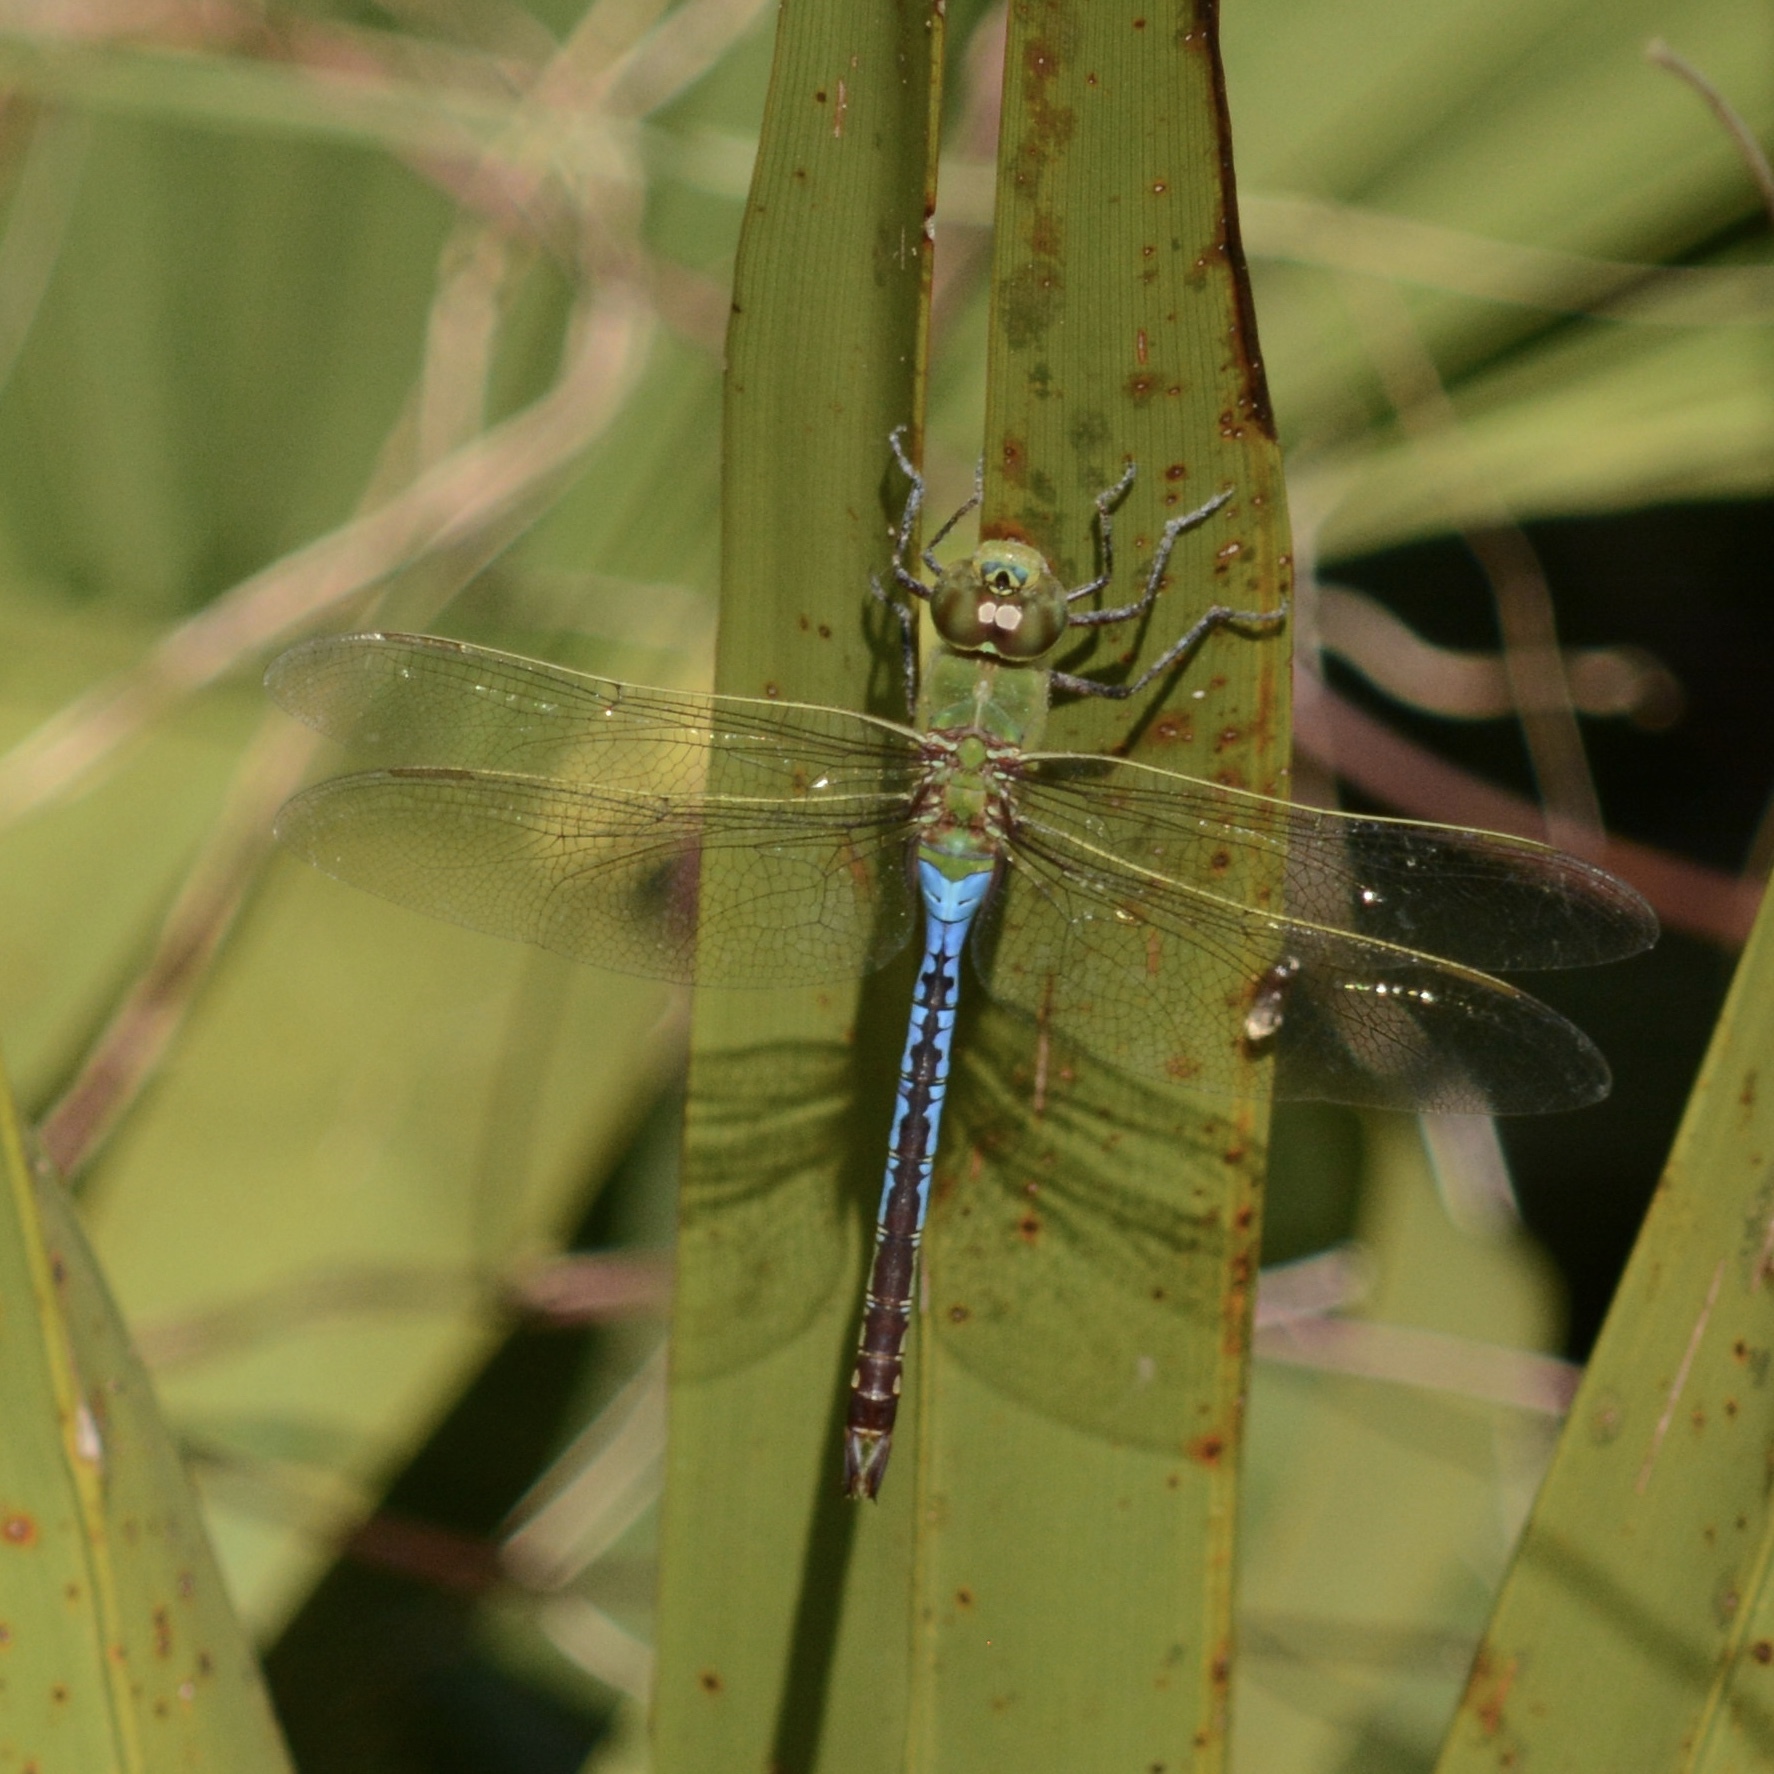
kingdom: Animalia
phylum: Arthropoda
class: Insecta
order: Odonata
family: Aeshnidae
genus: Anax
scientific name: Anax junius
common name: Common green darner
